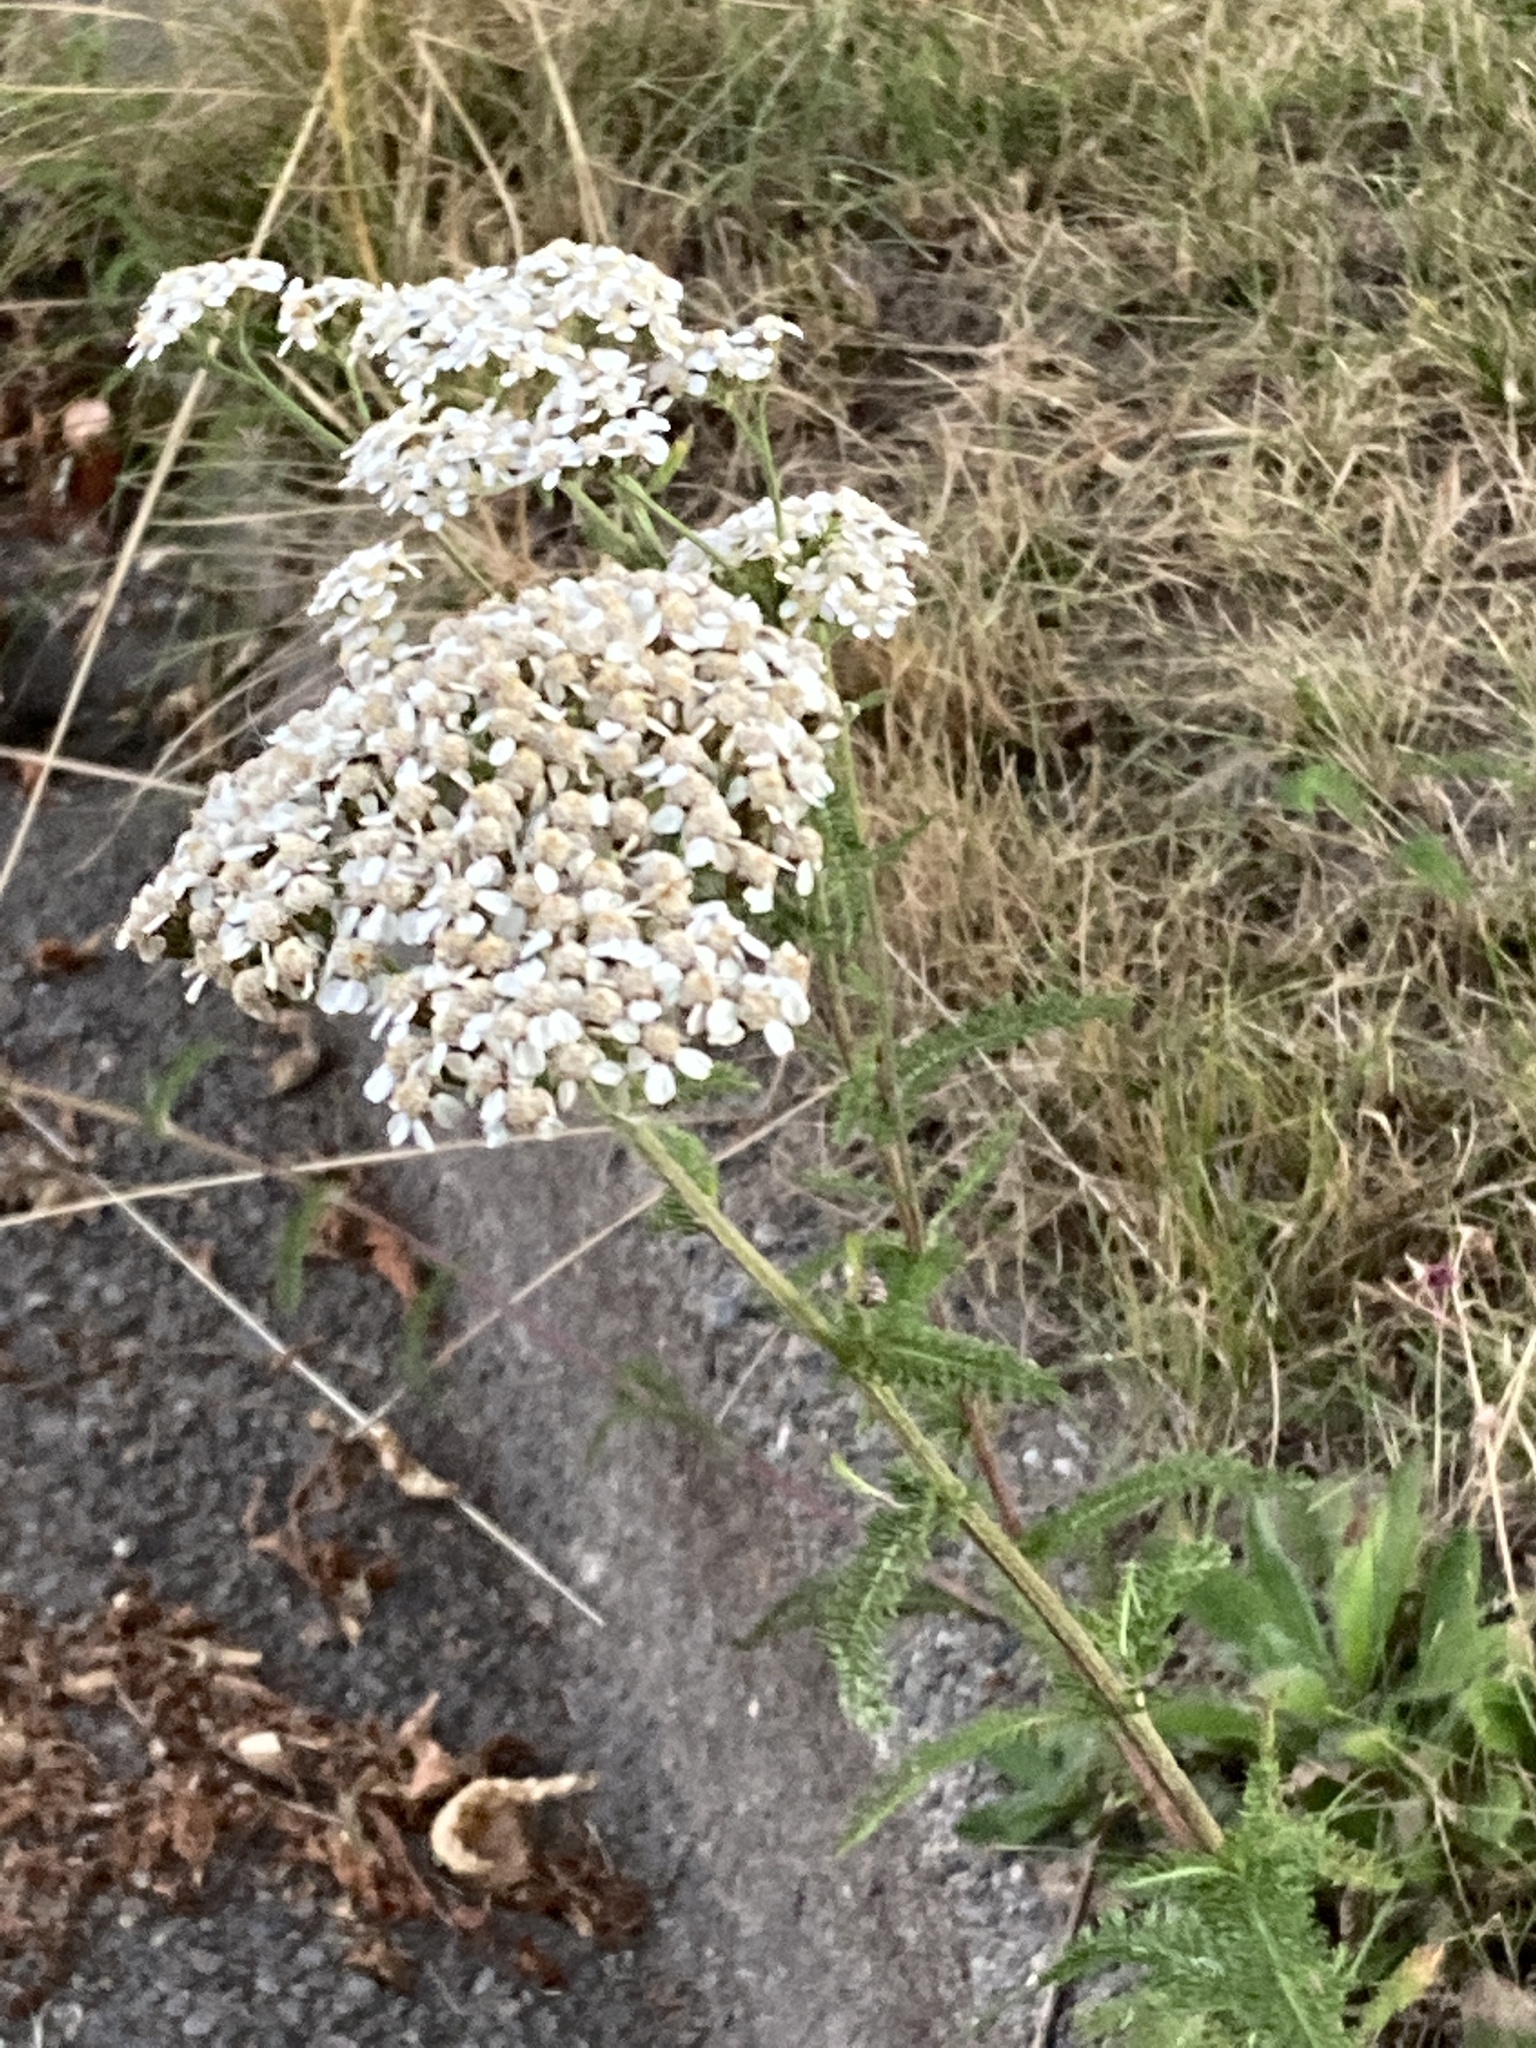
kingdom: Plantae
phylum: Tracheophyta
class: Magnoliopsida
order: Asterales
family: Asteraceae
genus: Achillea
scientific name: Achillea millefolium
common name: Yarrow
